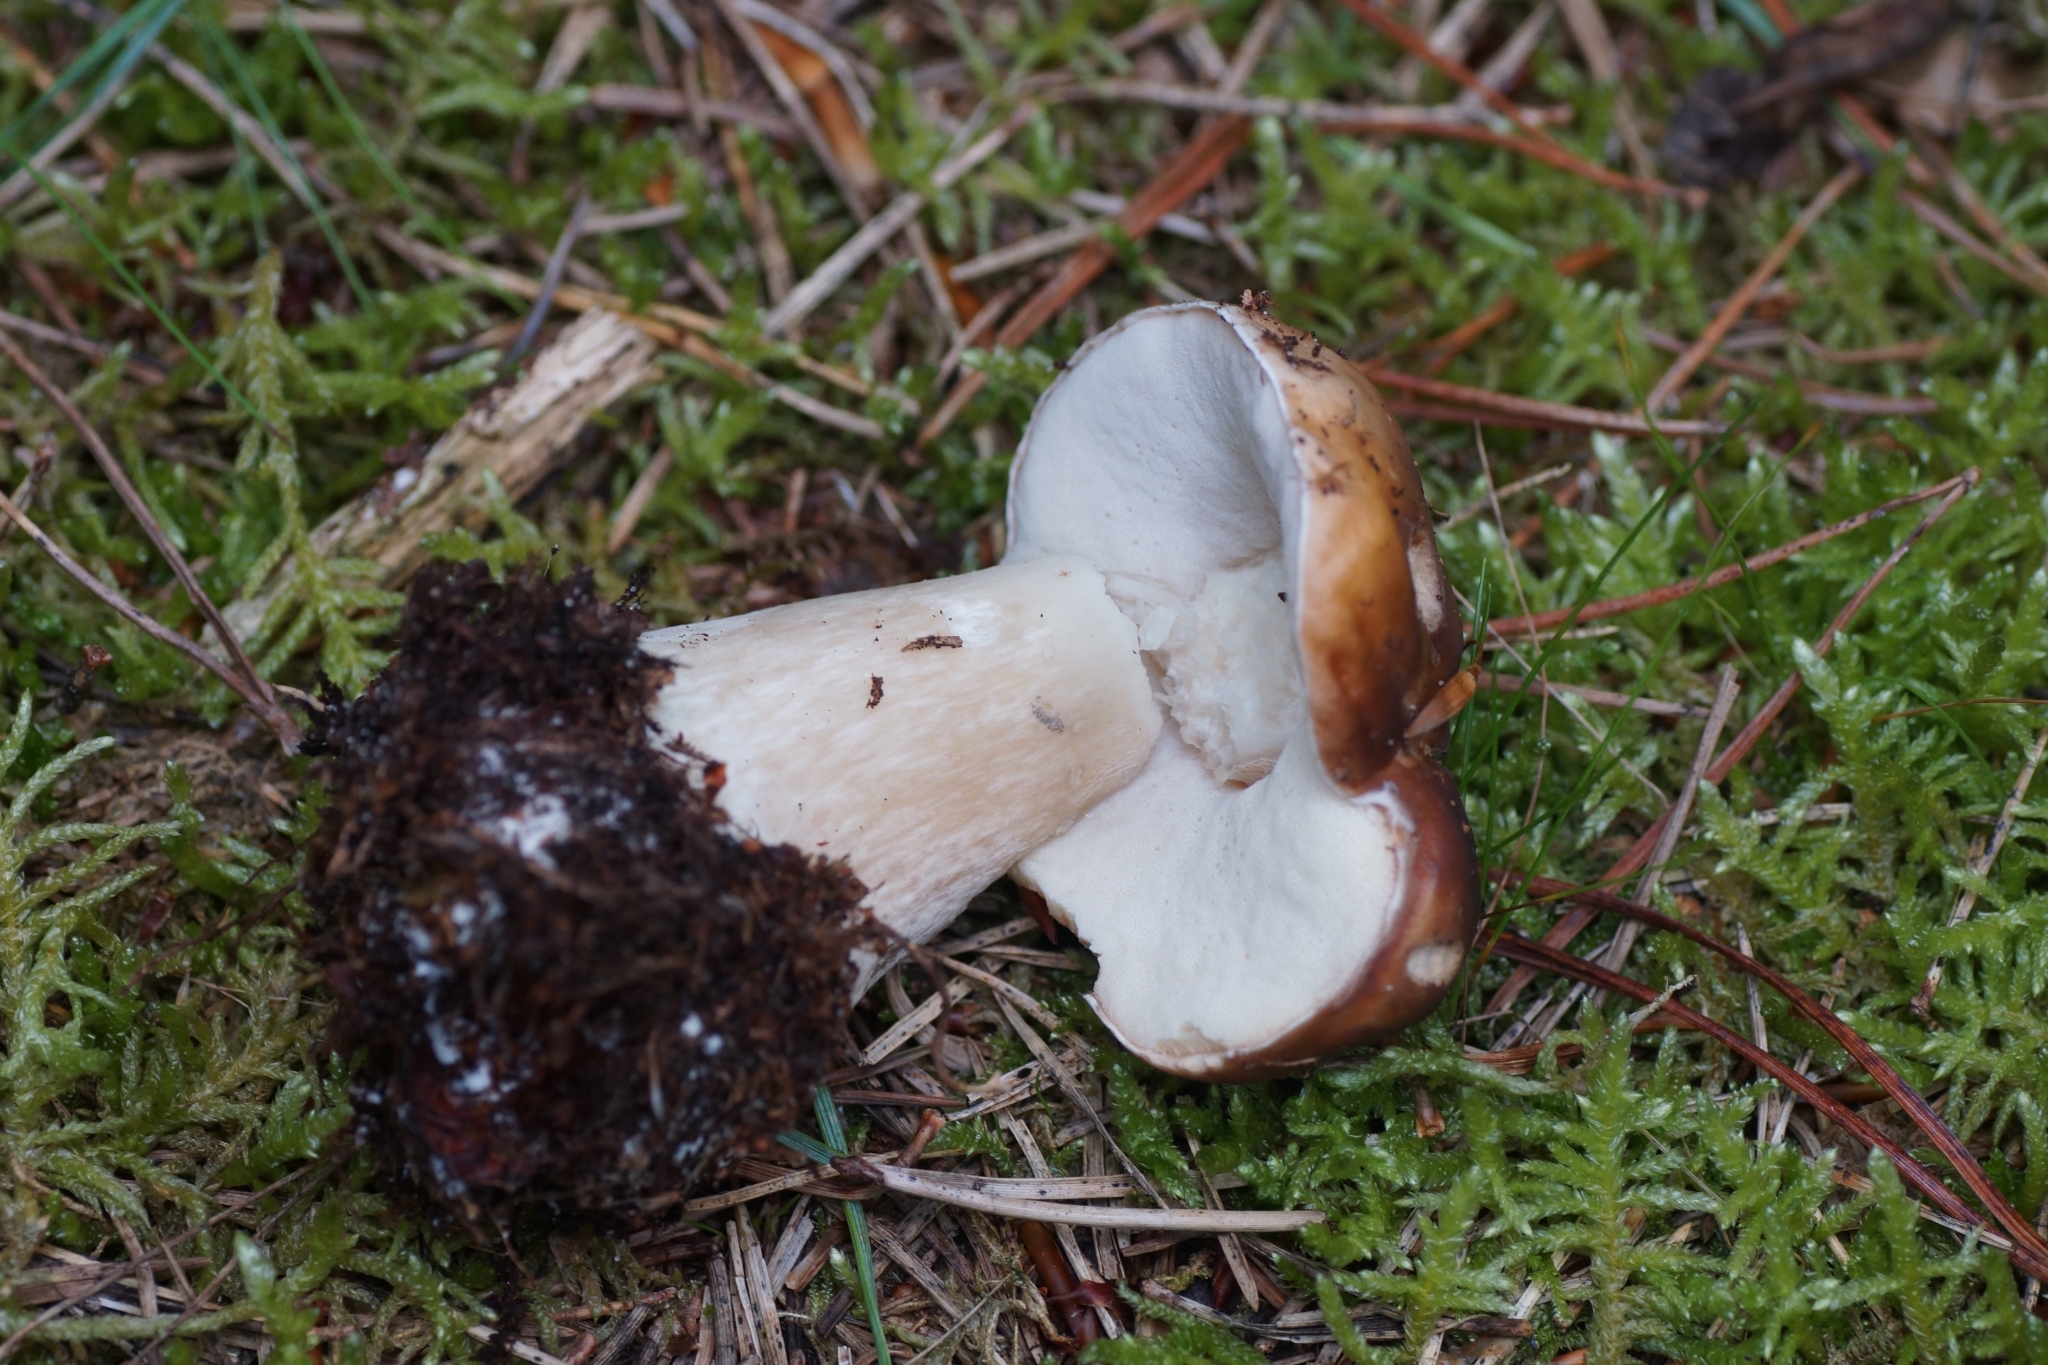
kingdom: Fungi
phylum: Basidiomycota
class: Agaricomycetes
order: Boletales
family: Boletaceae
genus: Boletus
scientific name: Boletus edulis
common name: Cep
